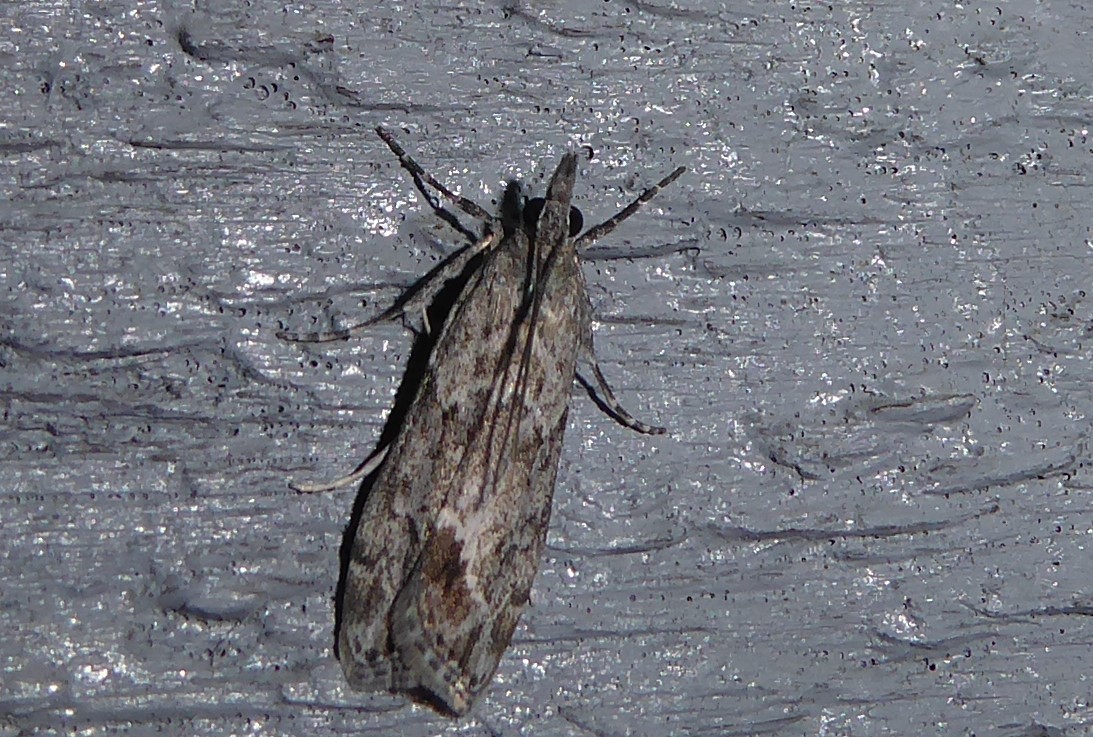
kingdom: Animalia
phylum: Arthropoda
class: Insecta
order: Lepidoptera
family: Crambidae
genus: Eudonia
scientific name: Eudonia rakaiensis
